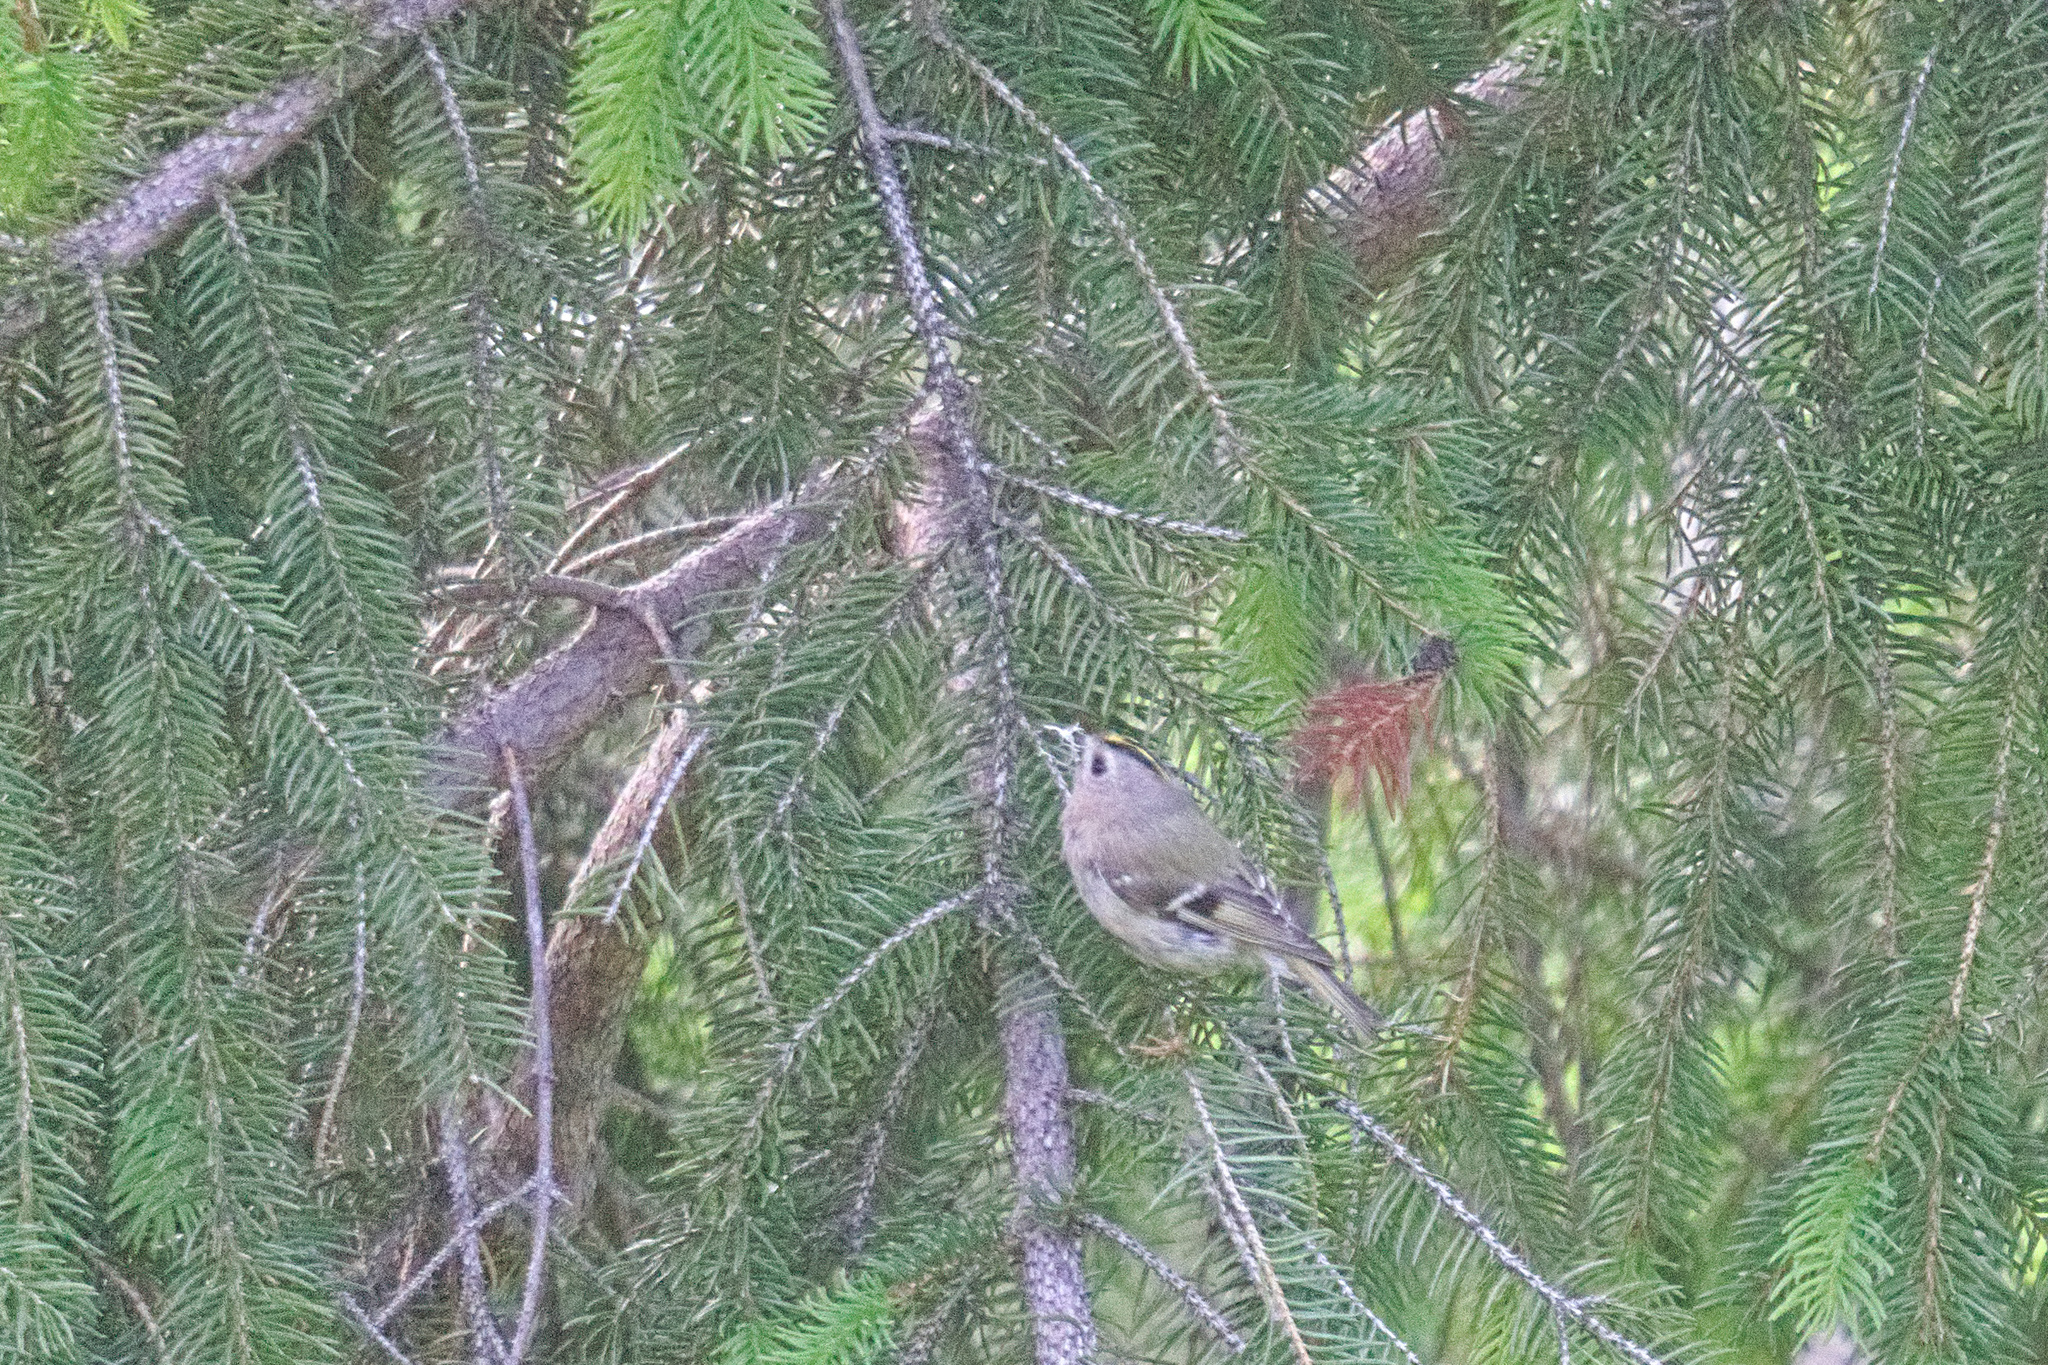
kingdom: Animalia
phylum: Chordata
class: Aves
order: Passeriformes
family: Regulidae
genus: Regulus
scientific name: Regulus regulus
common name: Goldcrest
